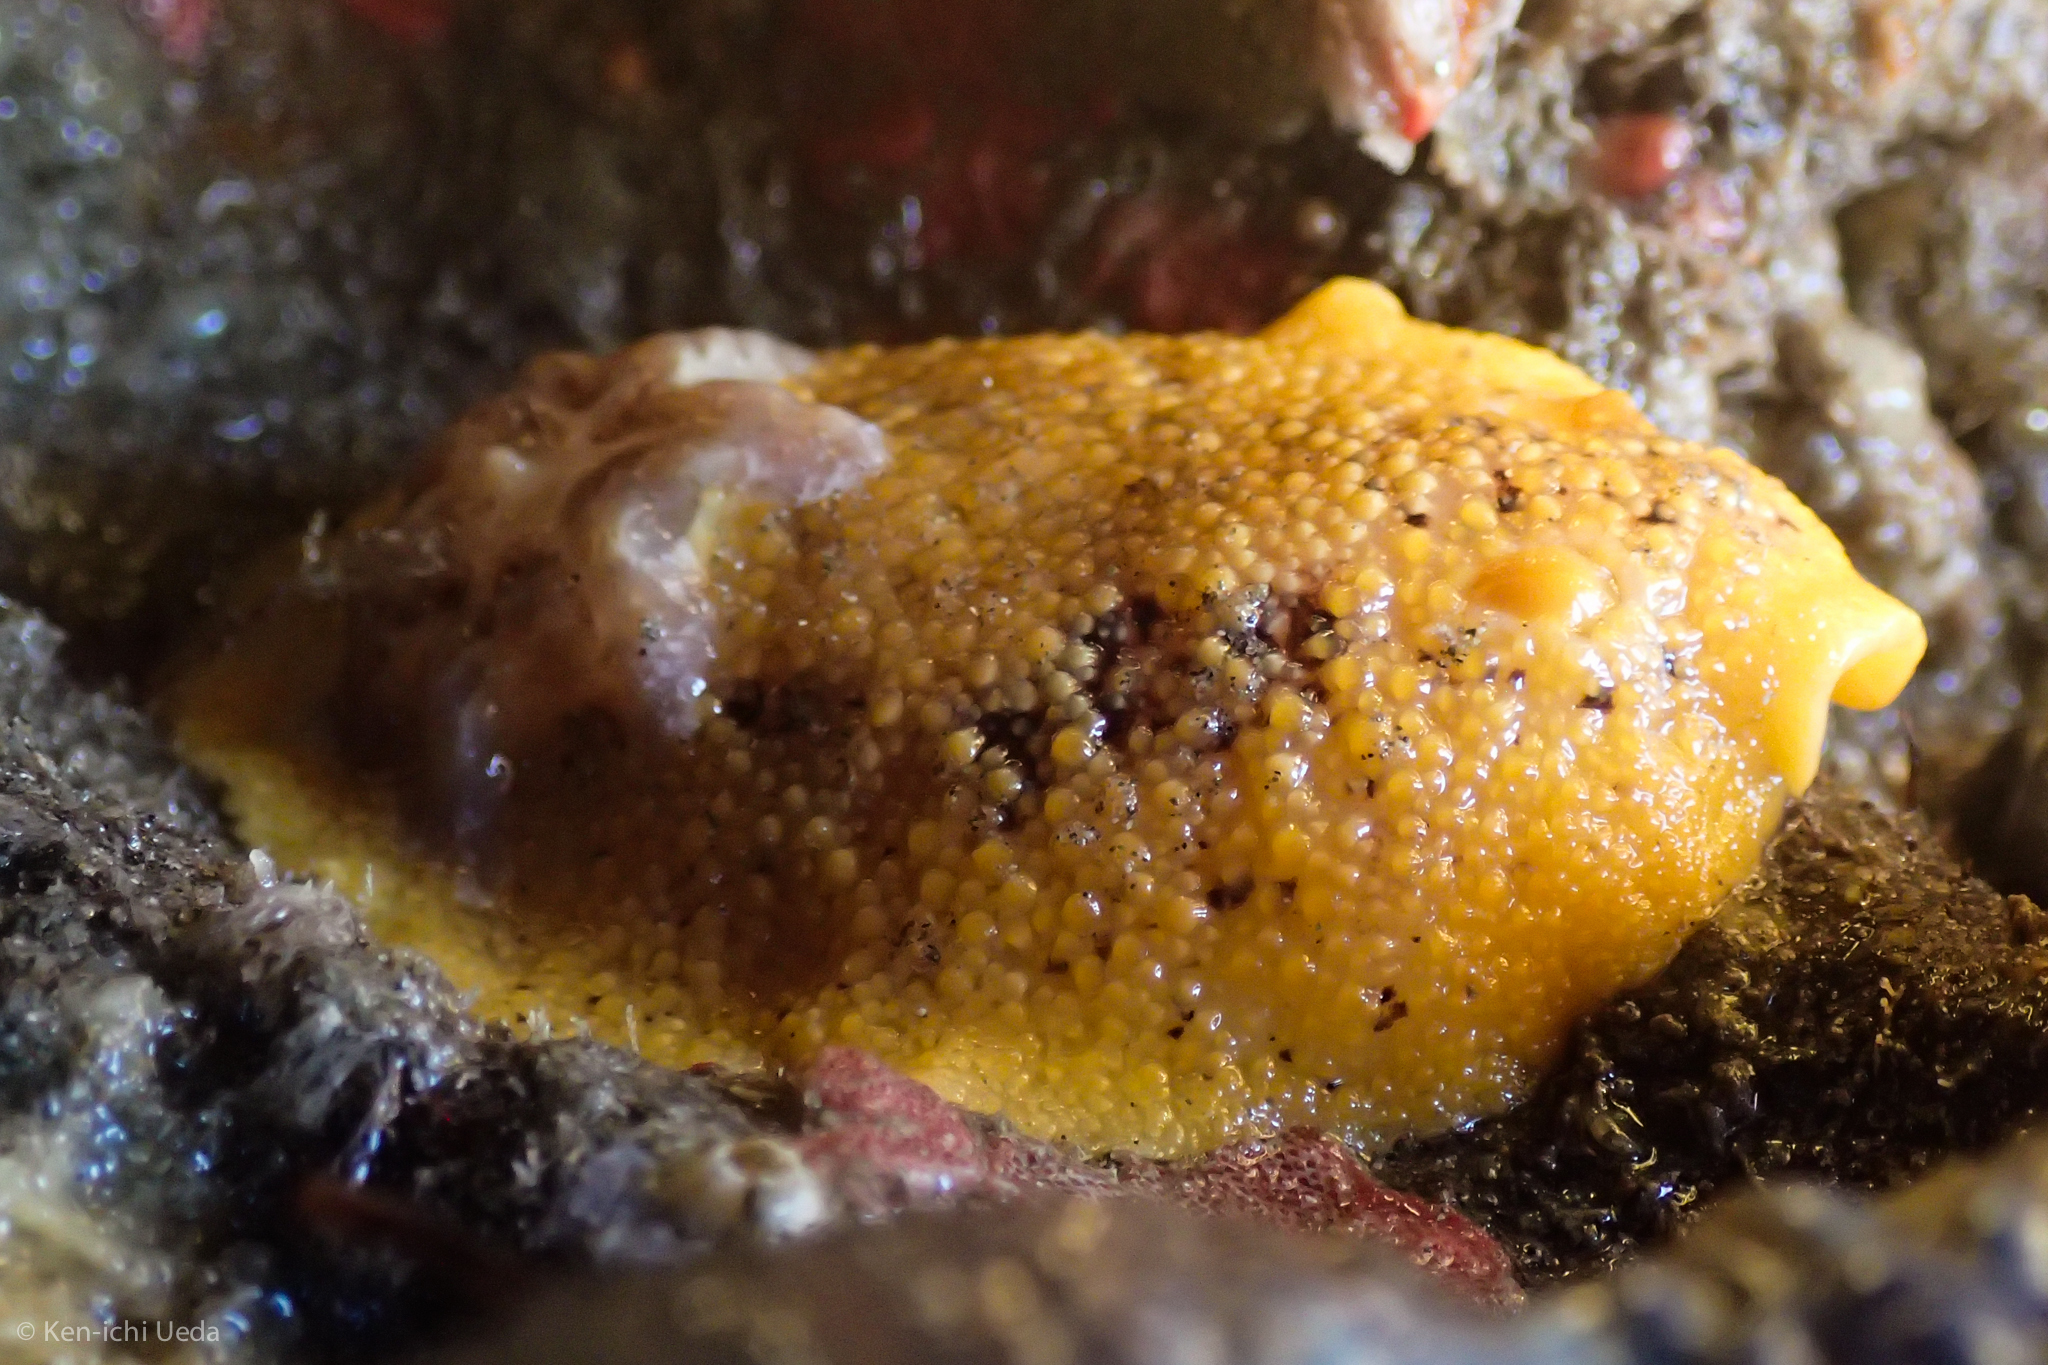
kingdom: Animalia
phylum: Mollusca
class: Gastropoda
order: Nudibranchia
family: Discodorididae
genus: Peltodoris
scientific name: Peltodoris nobilis
